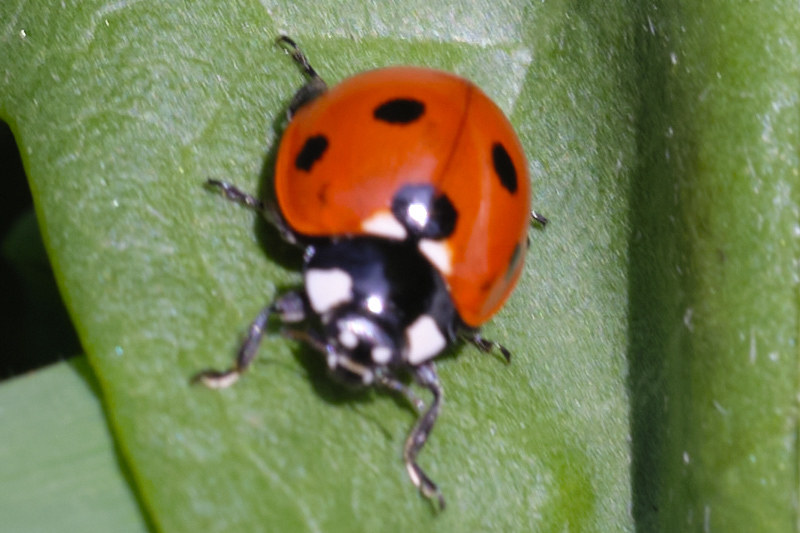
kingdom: Animalia
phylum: Arthropoda
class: Insecta
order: Coleoptera
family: Coccinellidae
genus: Coccinella
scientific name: Coccinella septempunctata
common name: Sevenspotted lady beetle
